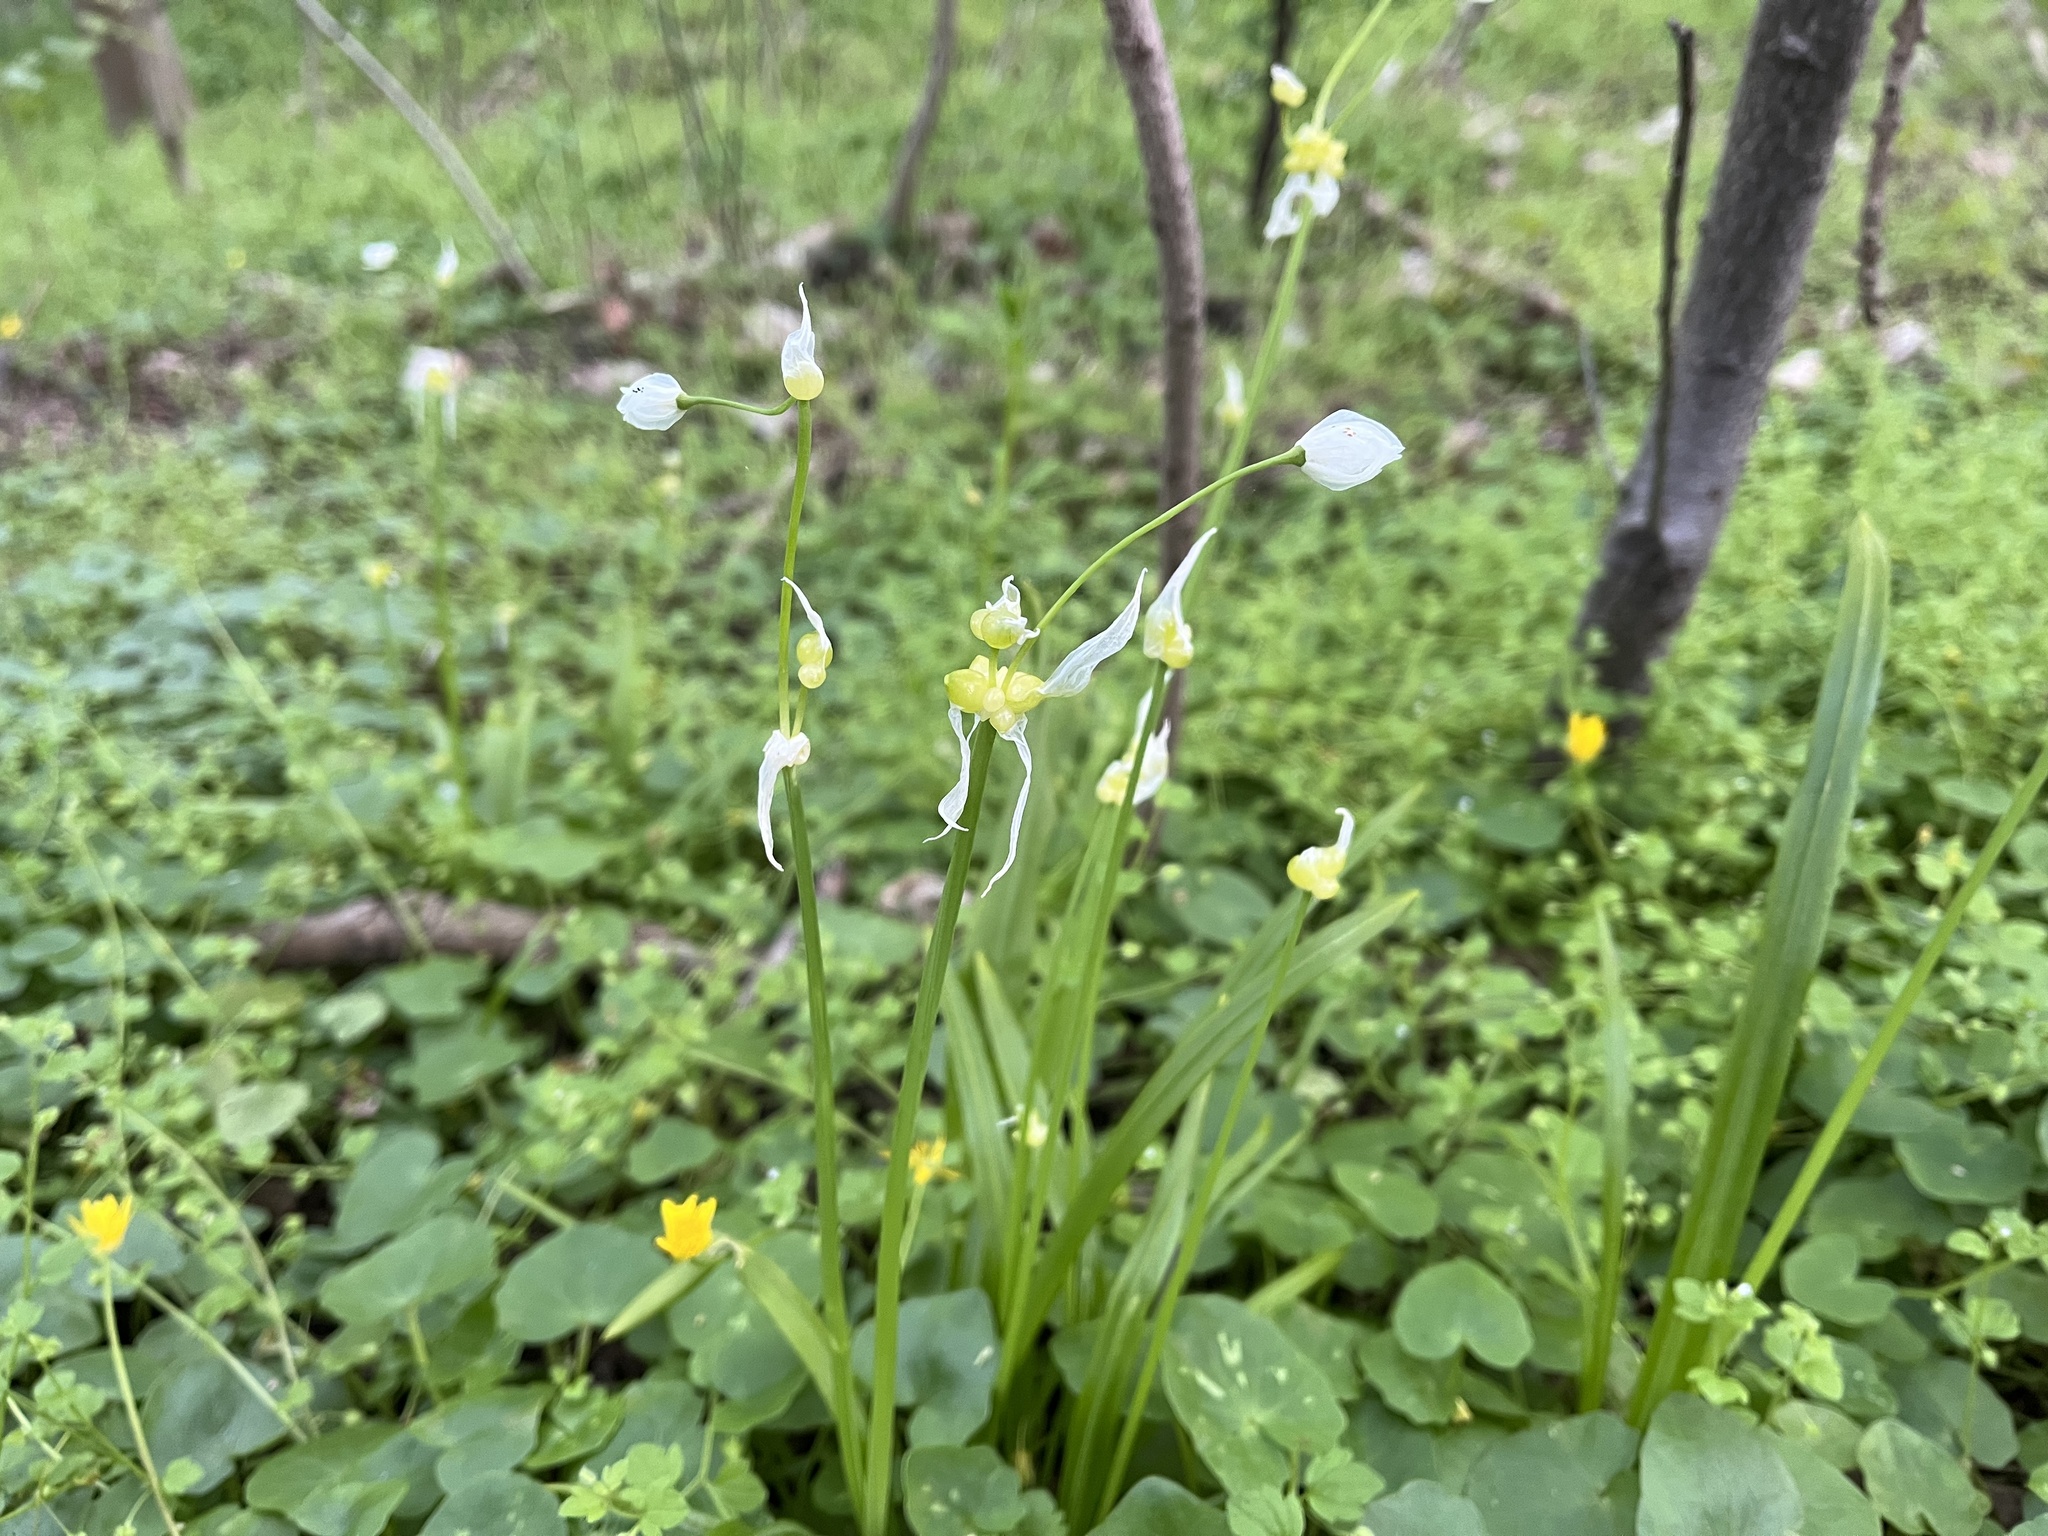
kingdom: Plantae
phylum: Tracheophyta
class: Liliopsida
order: Asparagales
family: Amaryllidaceae
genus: Allium
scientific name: Allium paradoxum
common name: Few-flowered garlic
